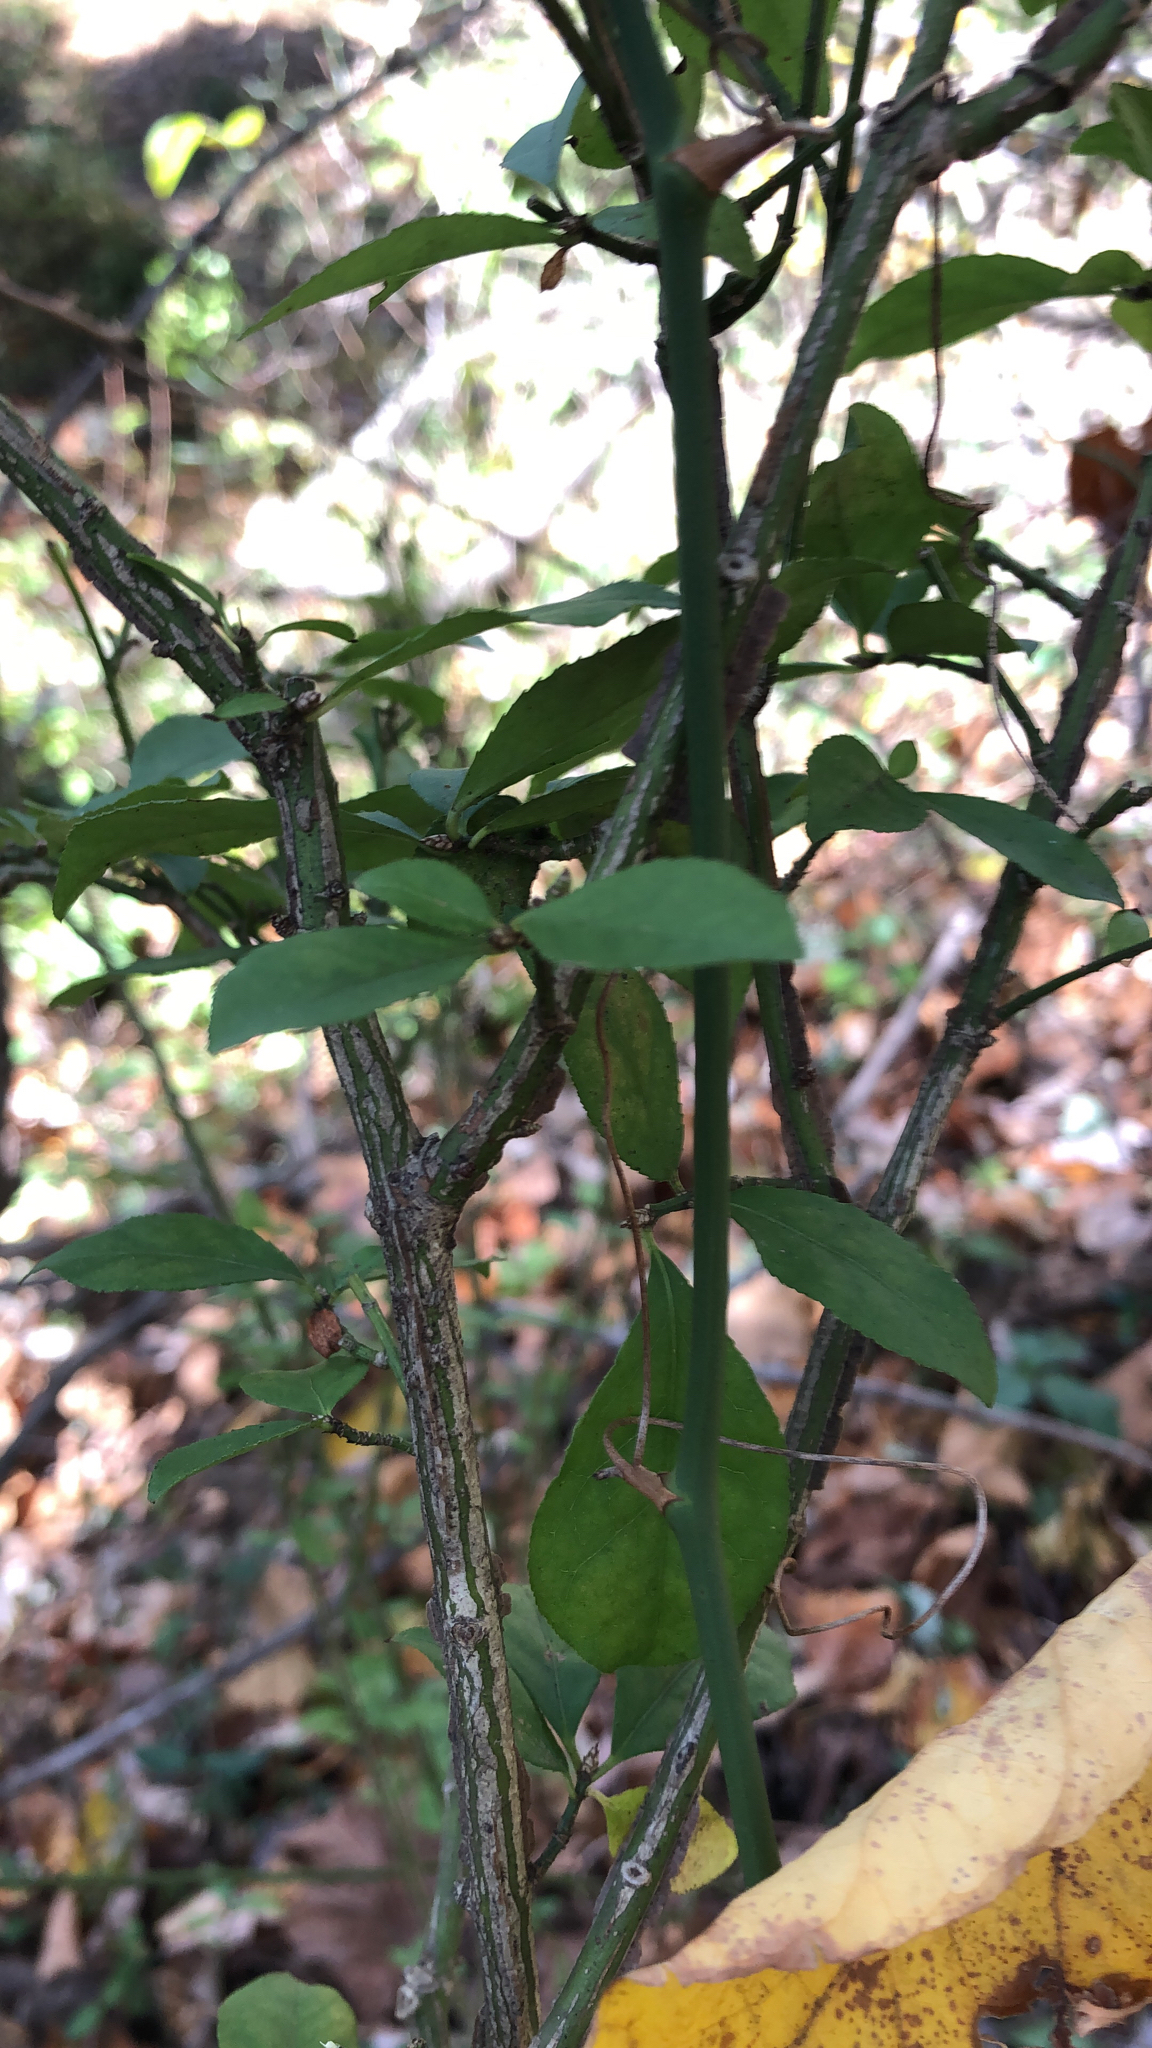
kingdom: Plantae
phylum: Tracheophyta
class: Magnoliopsida
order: Celastrales
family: Celastraceae
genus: Euonymus
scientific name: Euonymus alatus
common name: Winged euonymus
